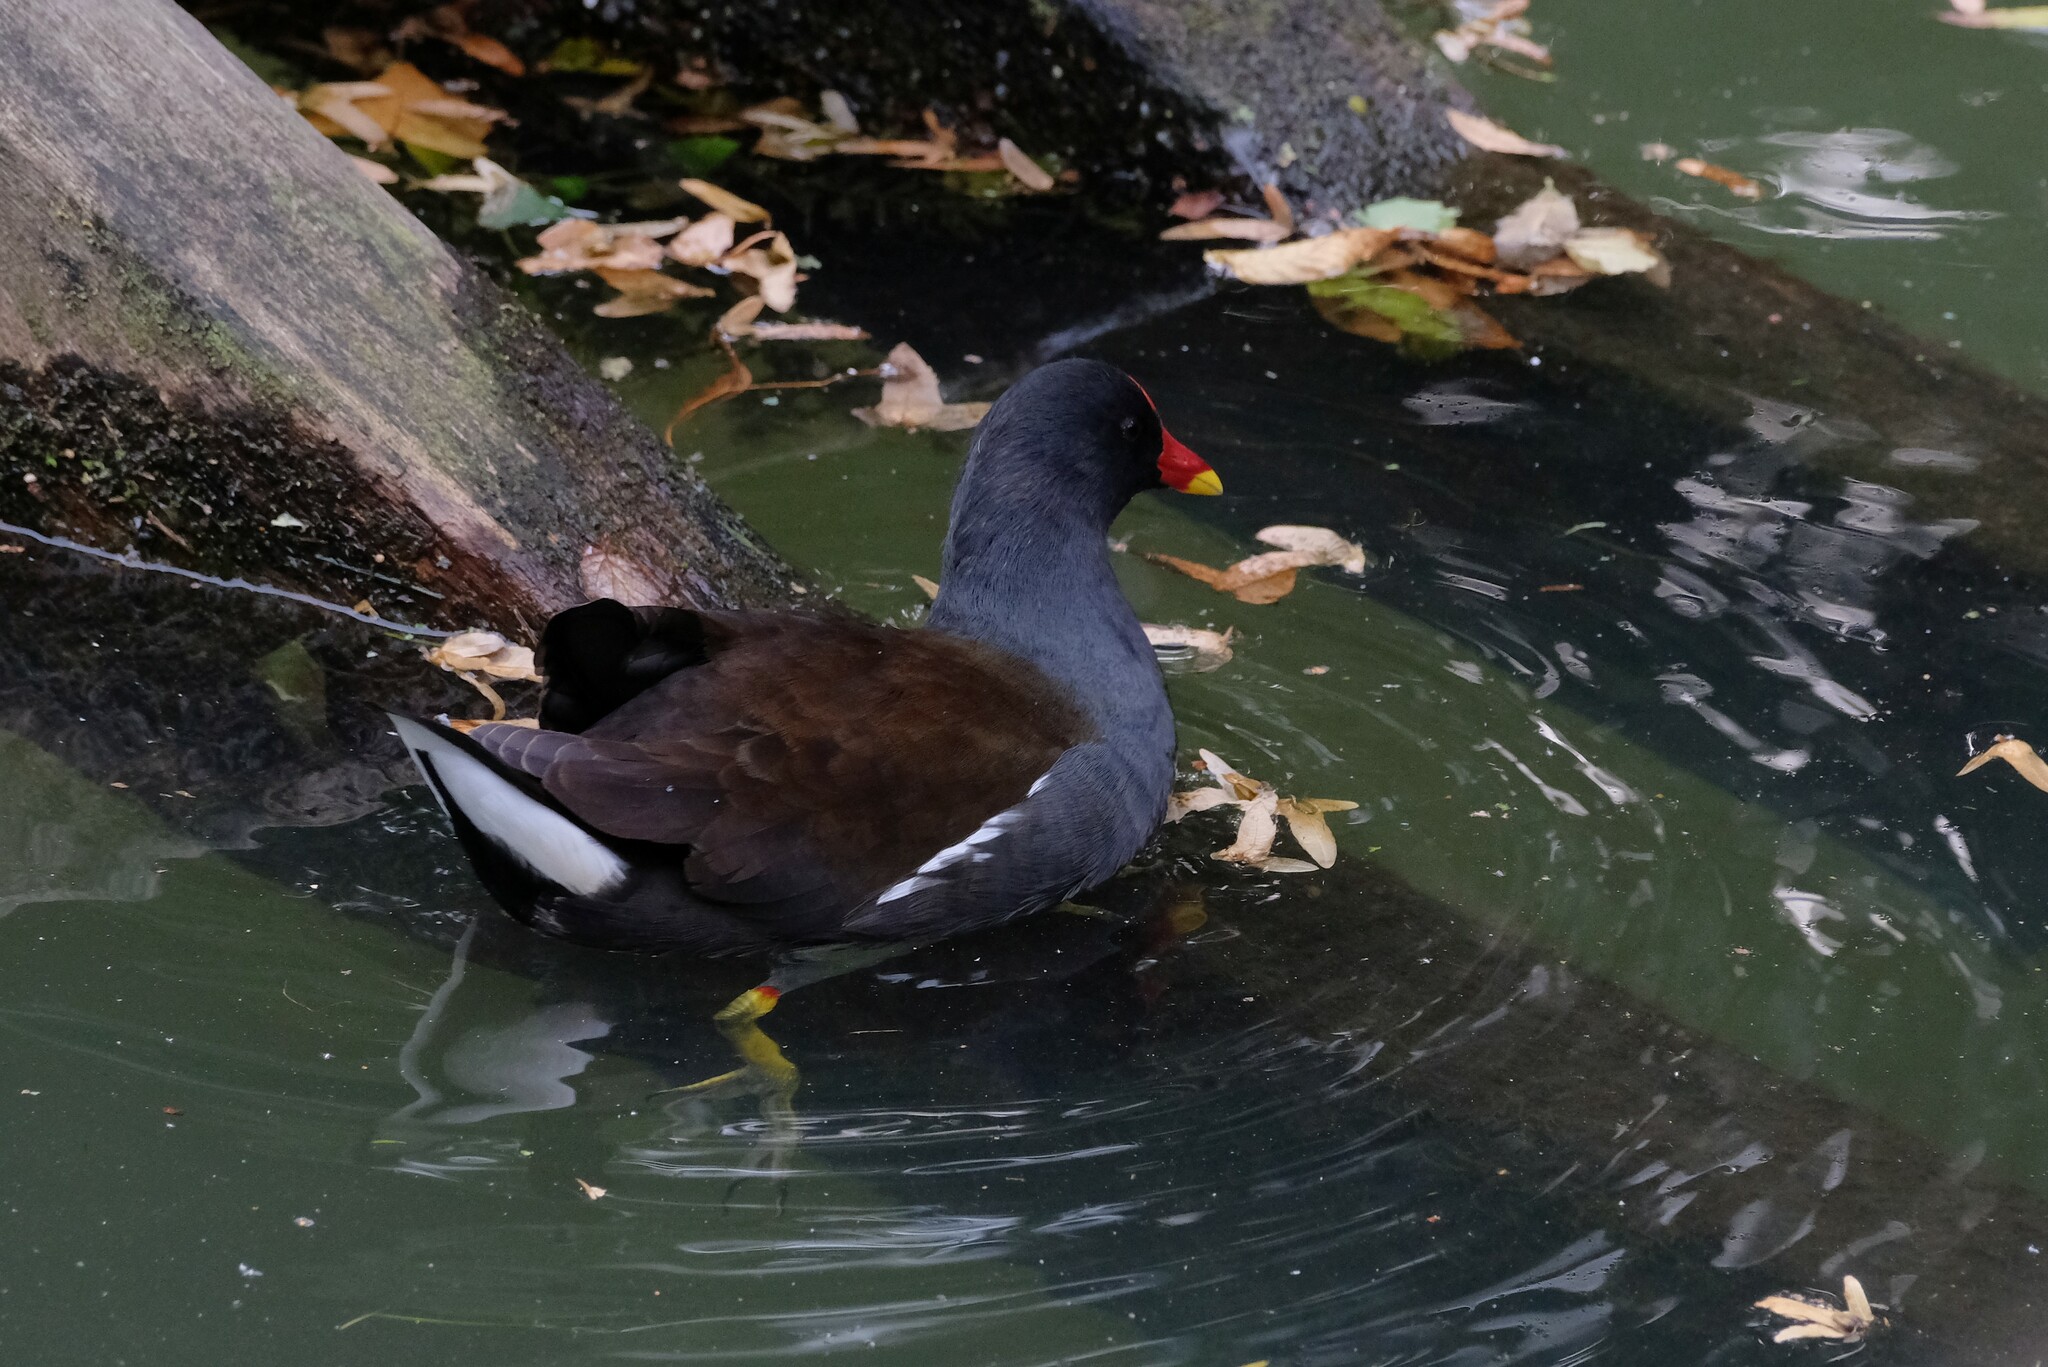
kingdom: Animalia
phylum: Chordata
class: Aves
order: Gruiformes
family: Rallidae
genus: Gallinula
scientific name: Gallinula chloropus
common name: Common moorhen
